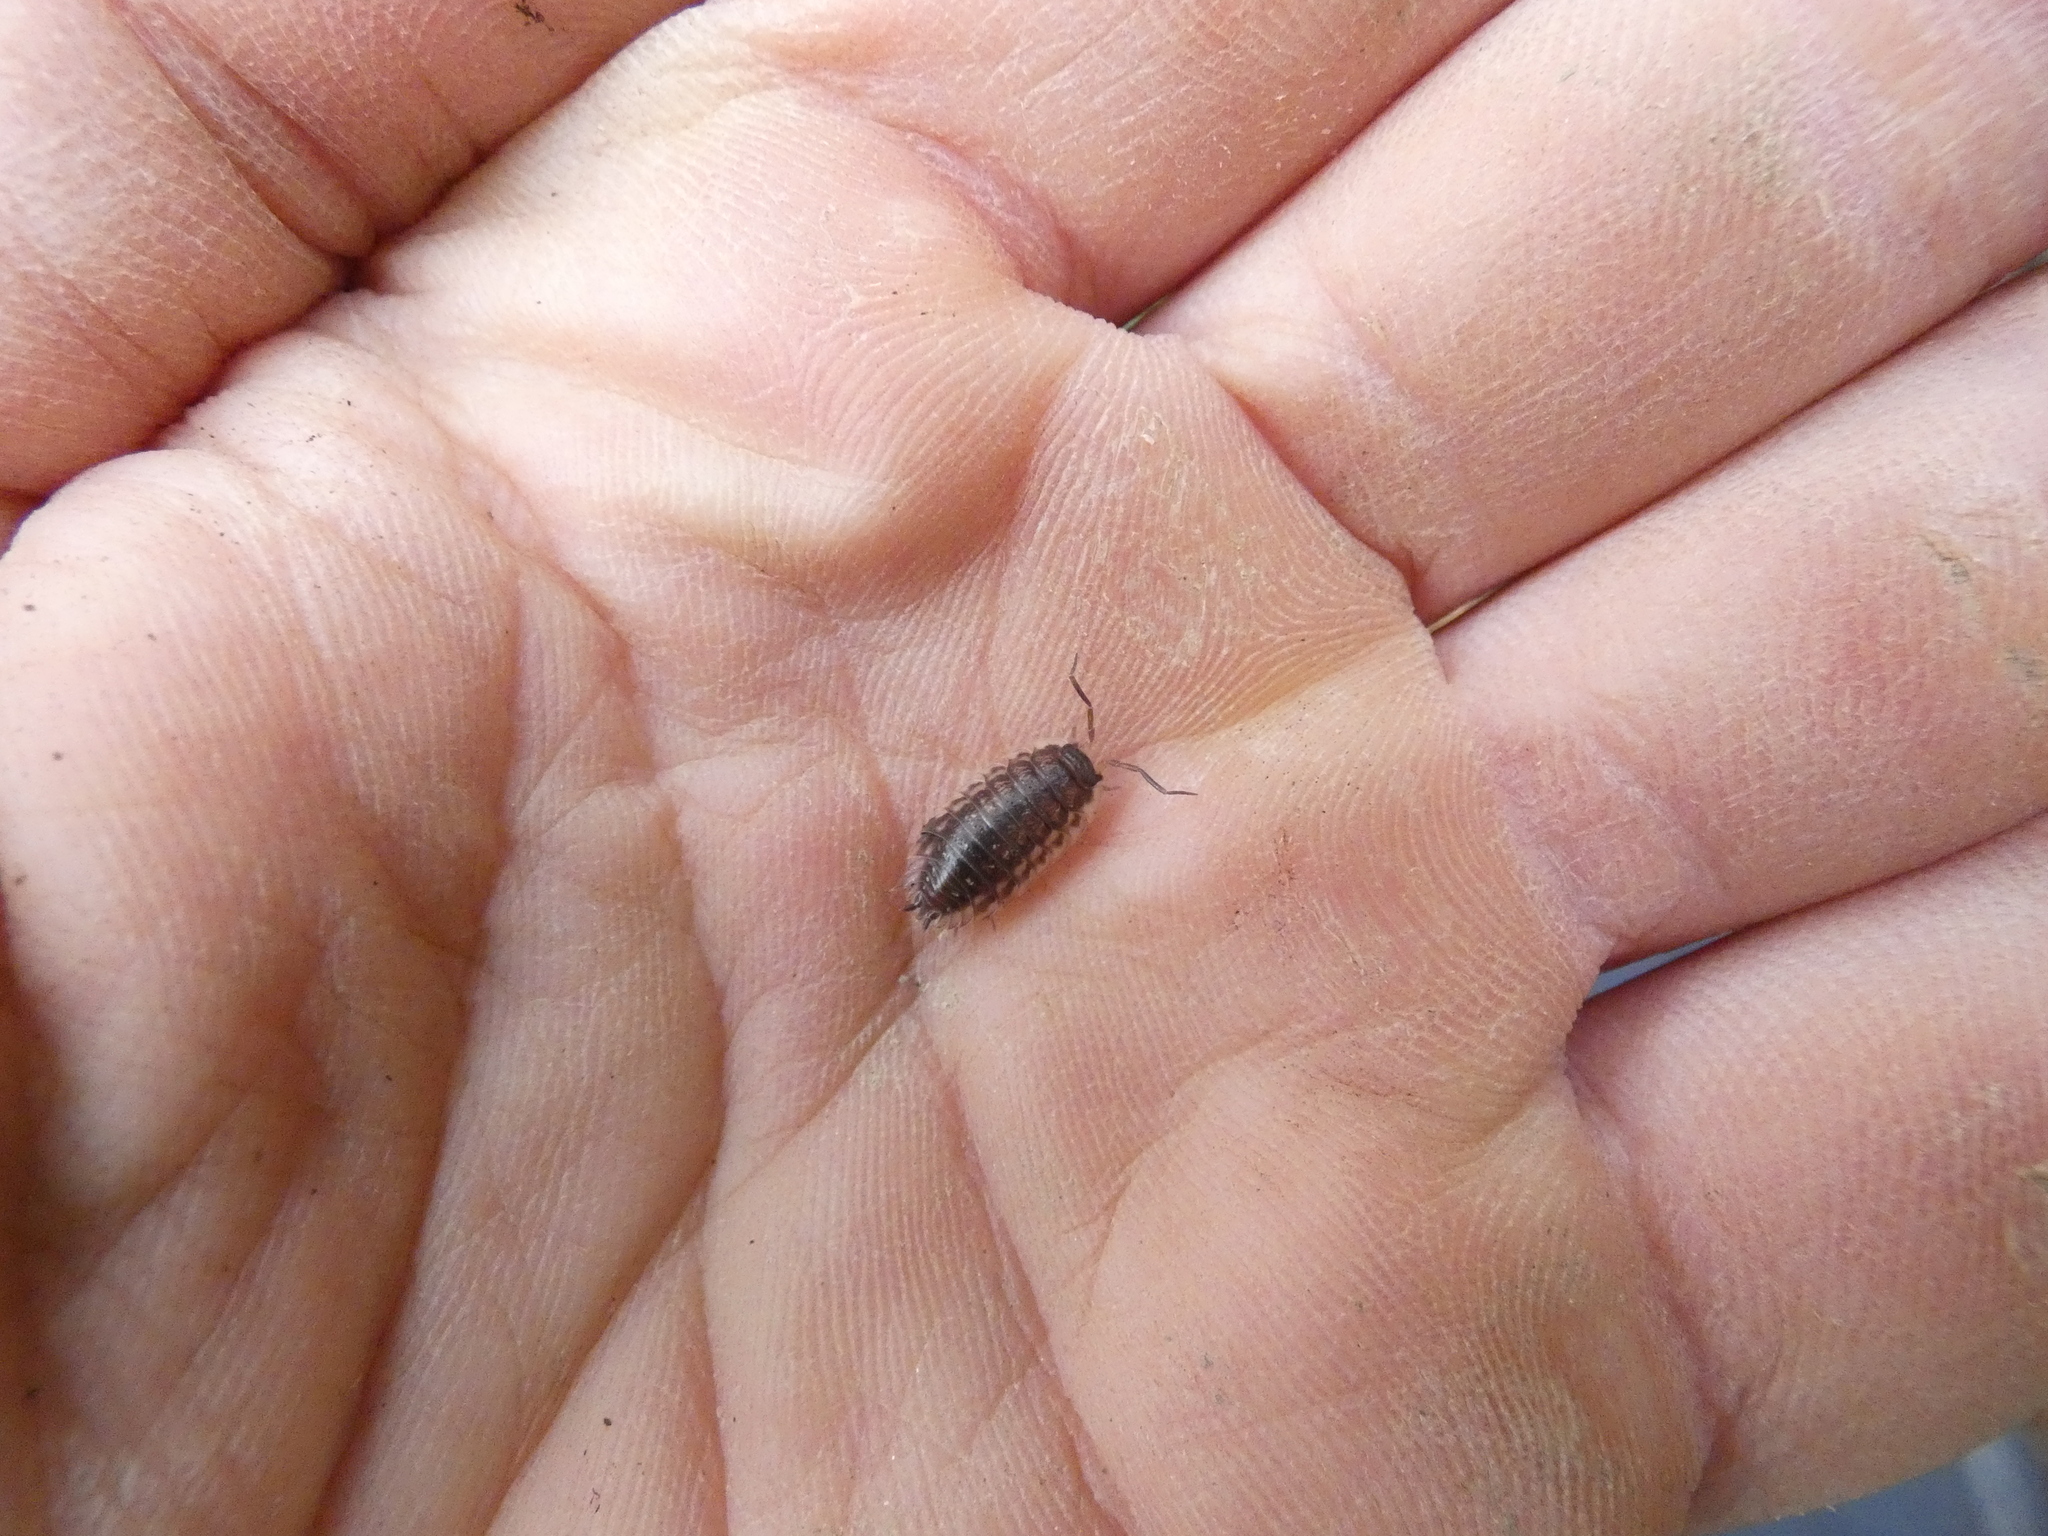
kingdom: Animalia
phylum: Arthropoda
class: Malacostraca
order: Isopoda
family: Oniscidae
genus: Oniscus
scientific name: Oniscus asellus
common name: Common shiny woodlouse
